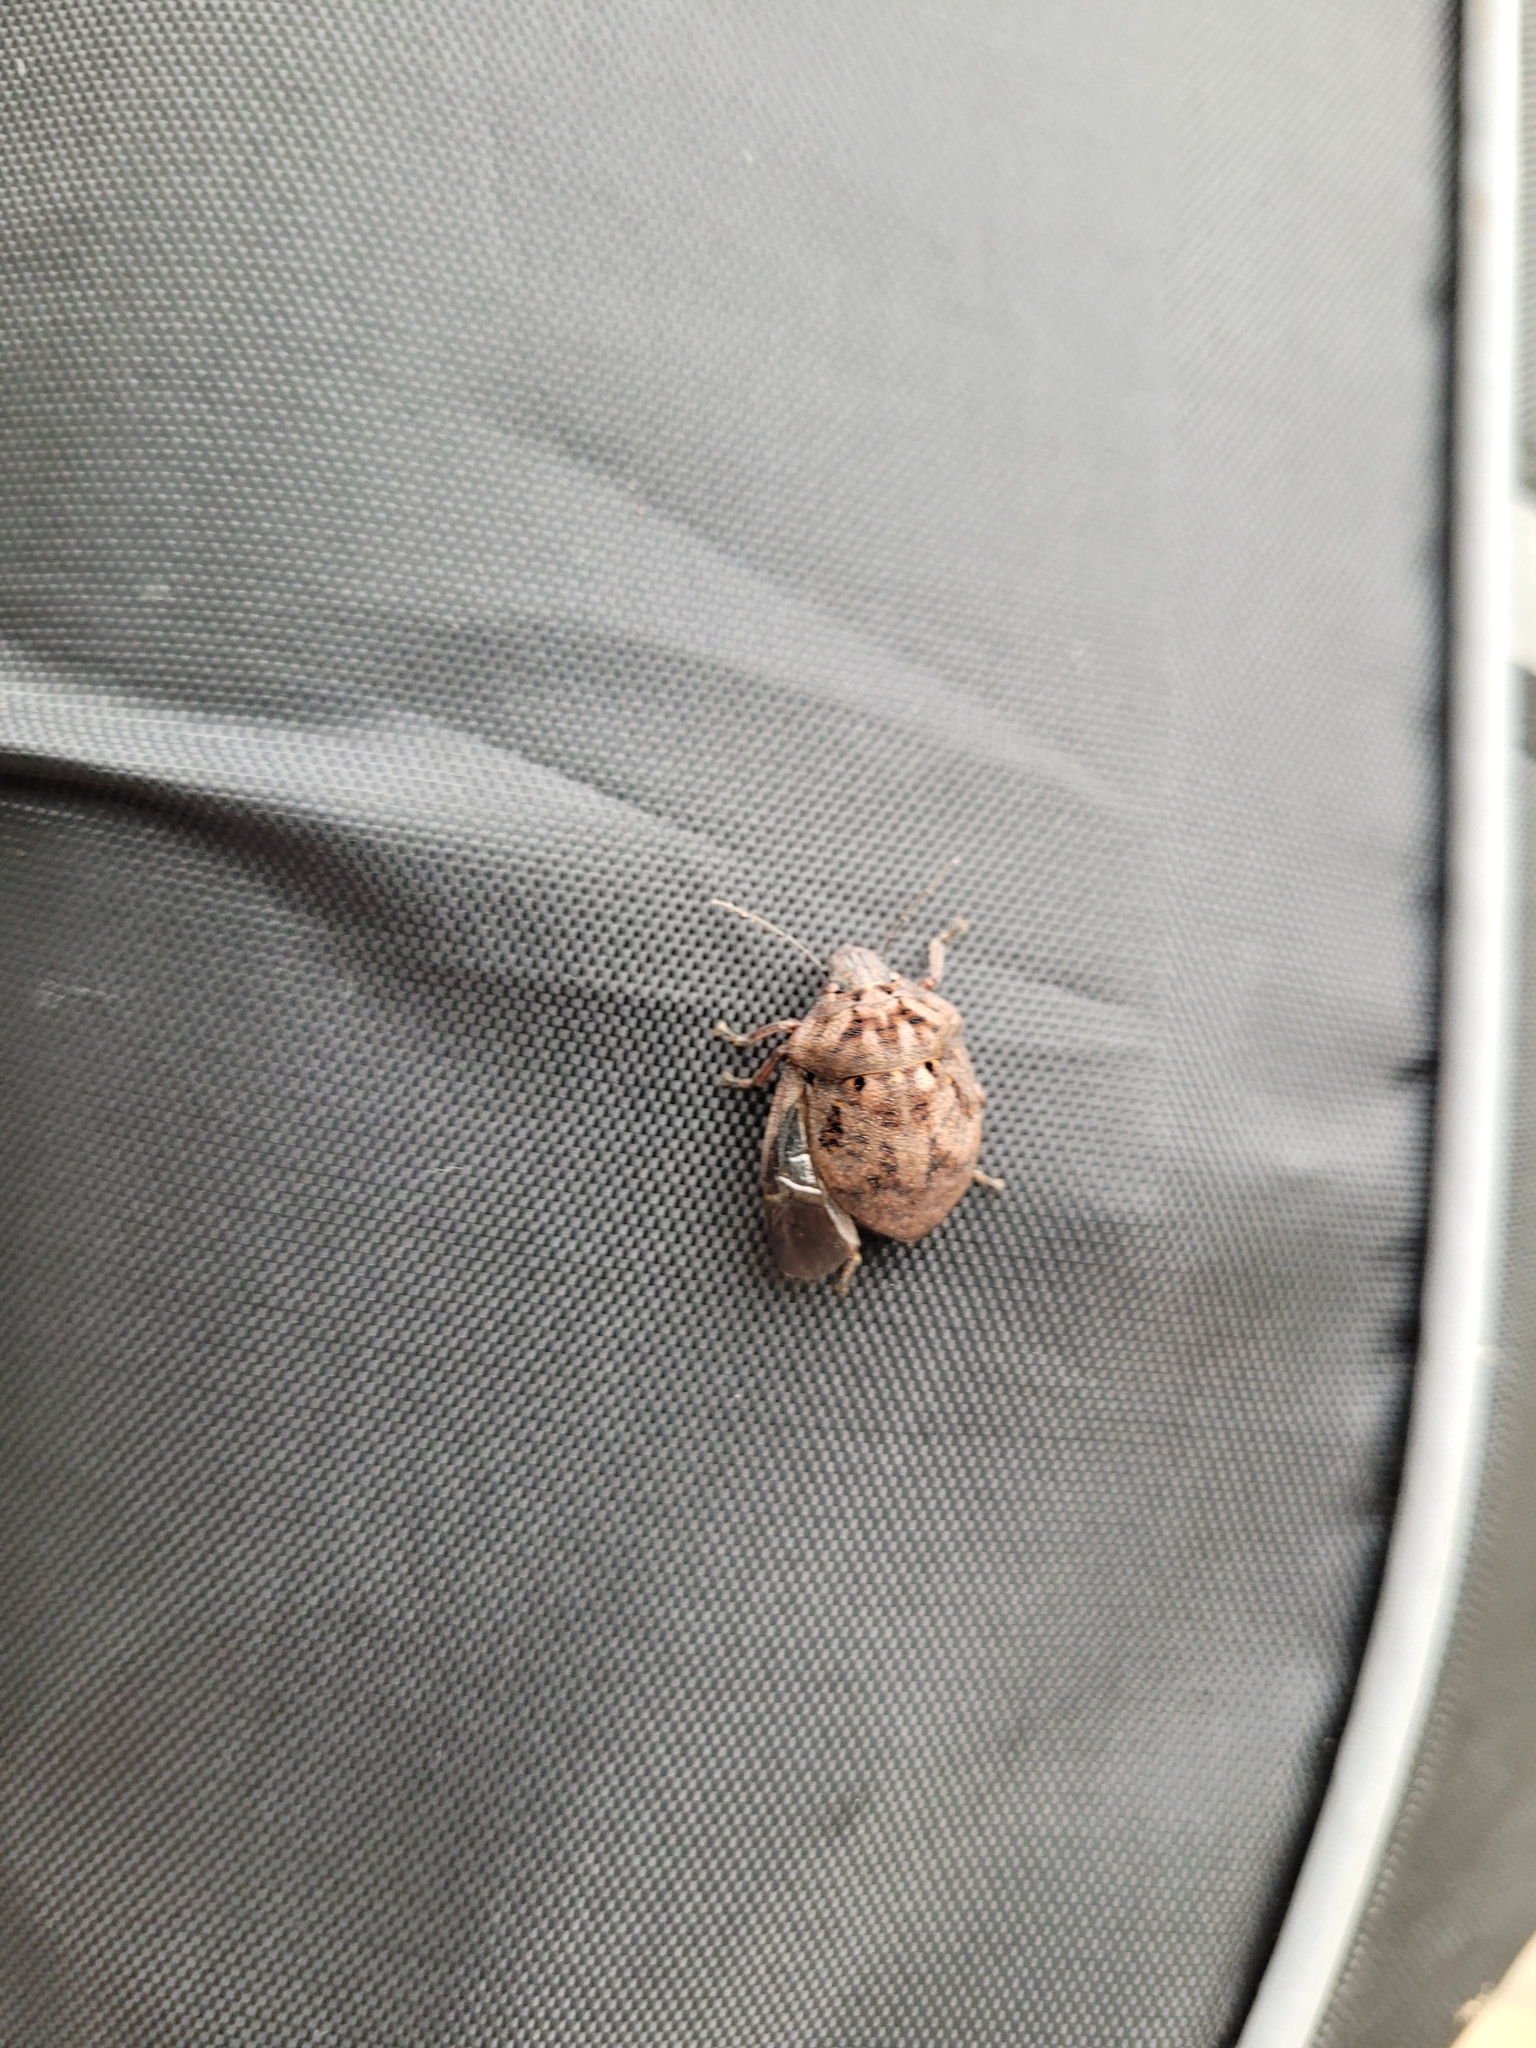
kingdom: Animalia
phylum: Arthropoda
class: Insecta
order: Hemiptera
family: Scutelleridae
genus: Tetyra
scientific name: Tetyra bipunctata
